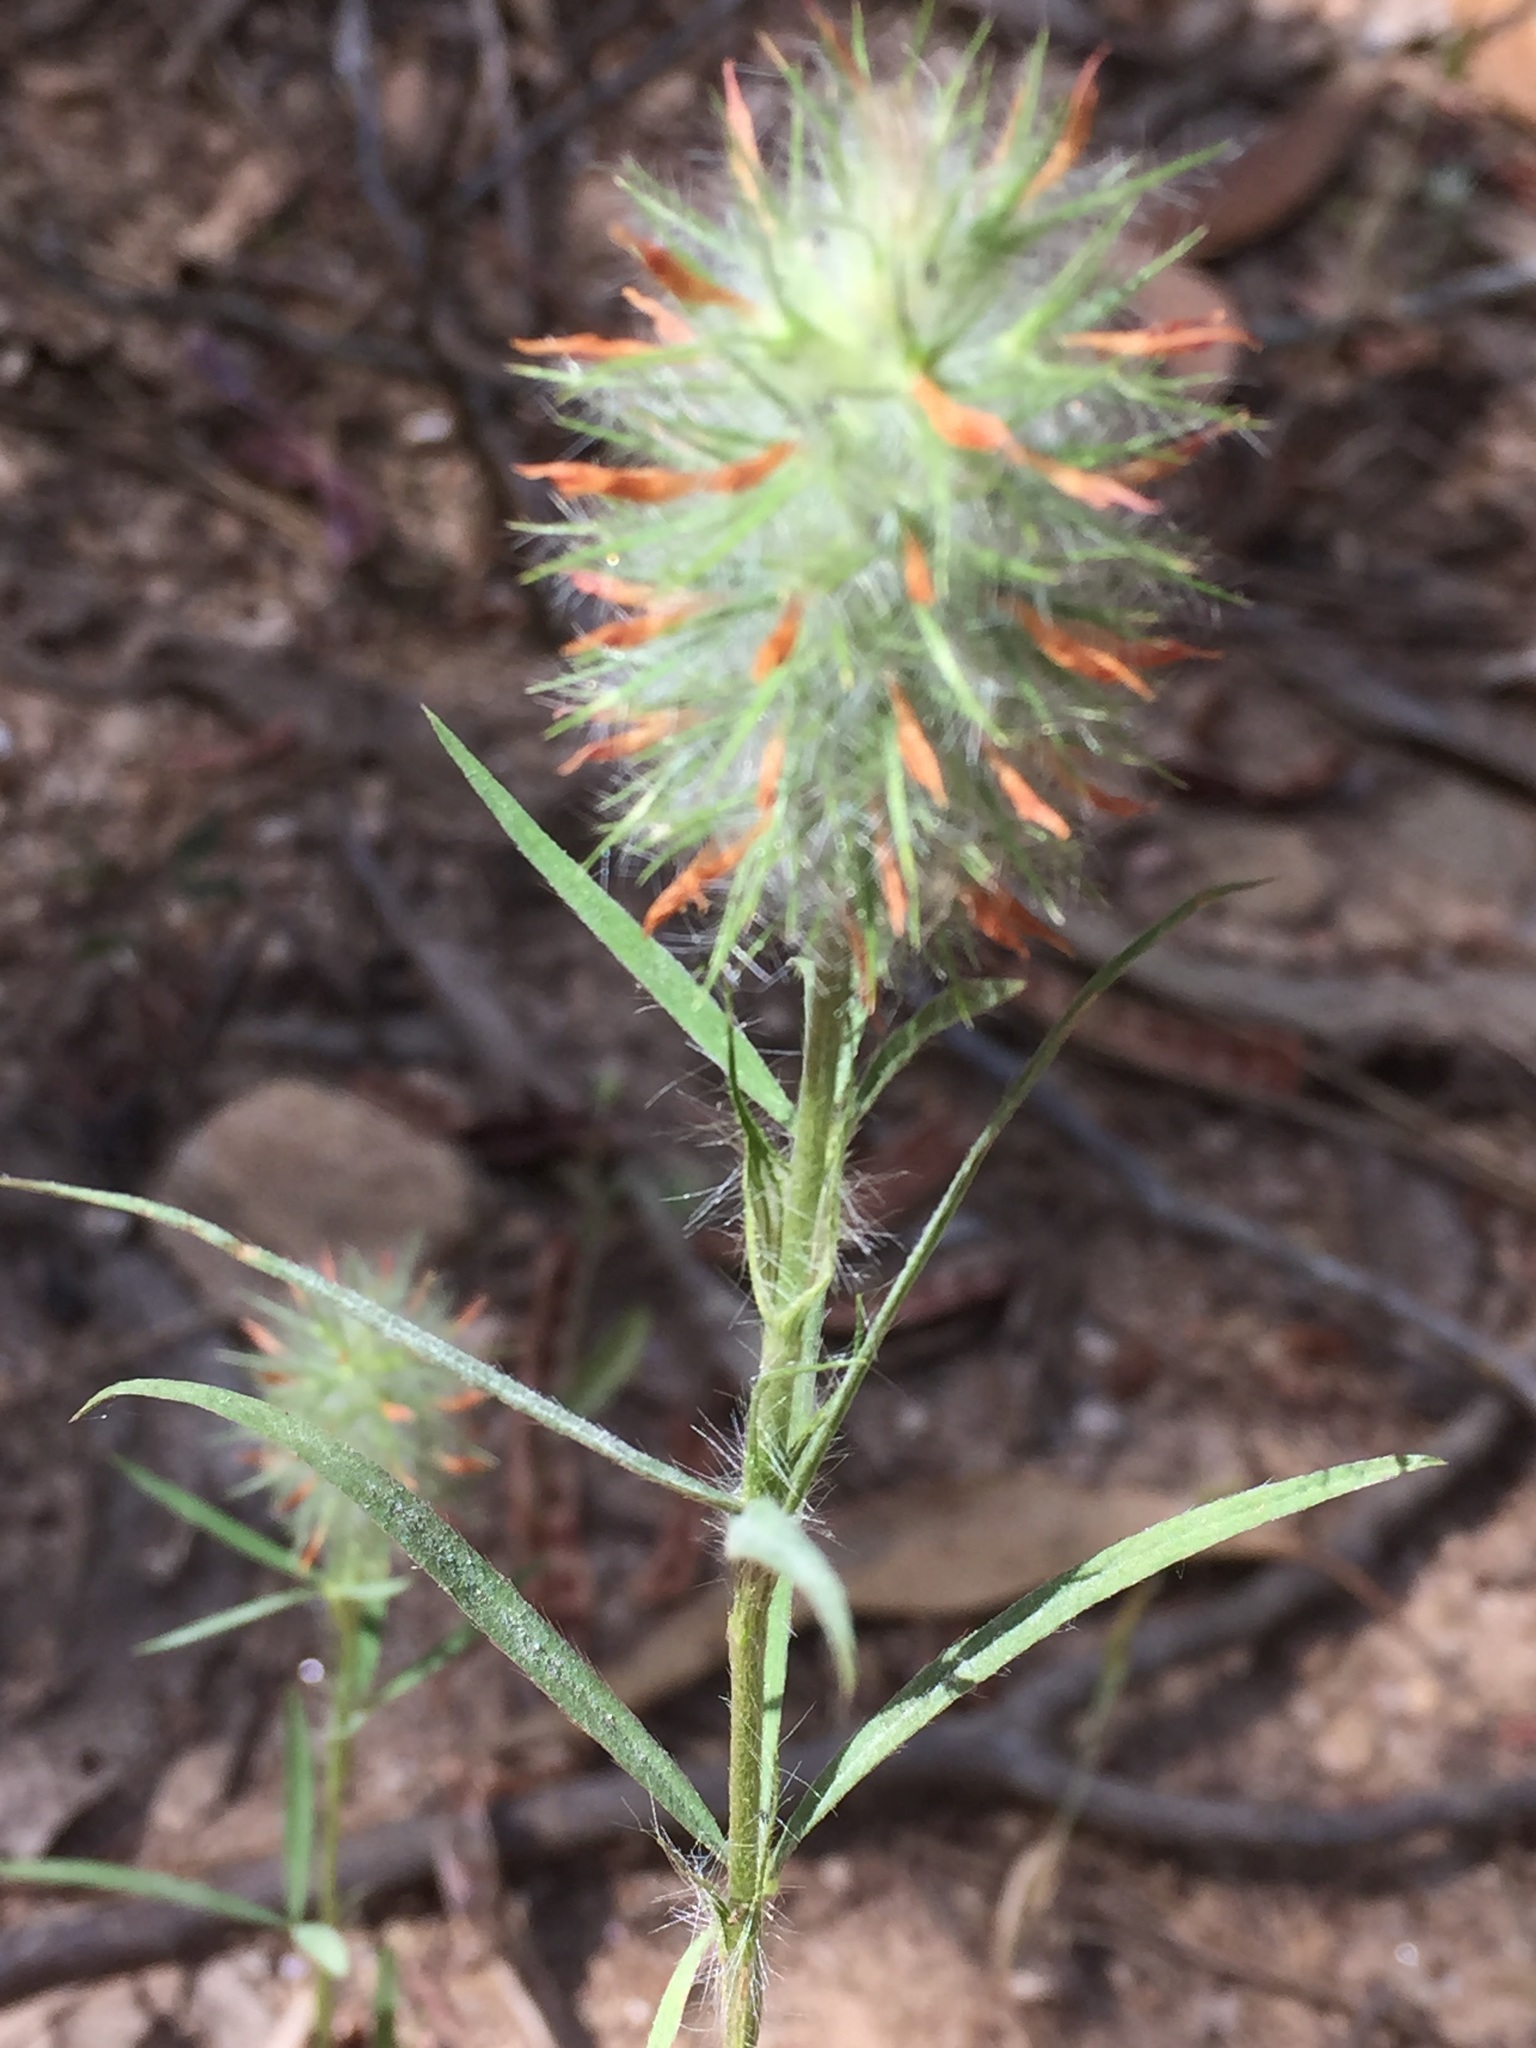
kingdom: Plantae
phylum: Tracheophyta
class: Magnoliopsida
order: Fabales
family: Fabaceae
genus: Trifolium
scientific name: Trifolium angustifolium
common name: Narrow clover
